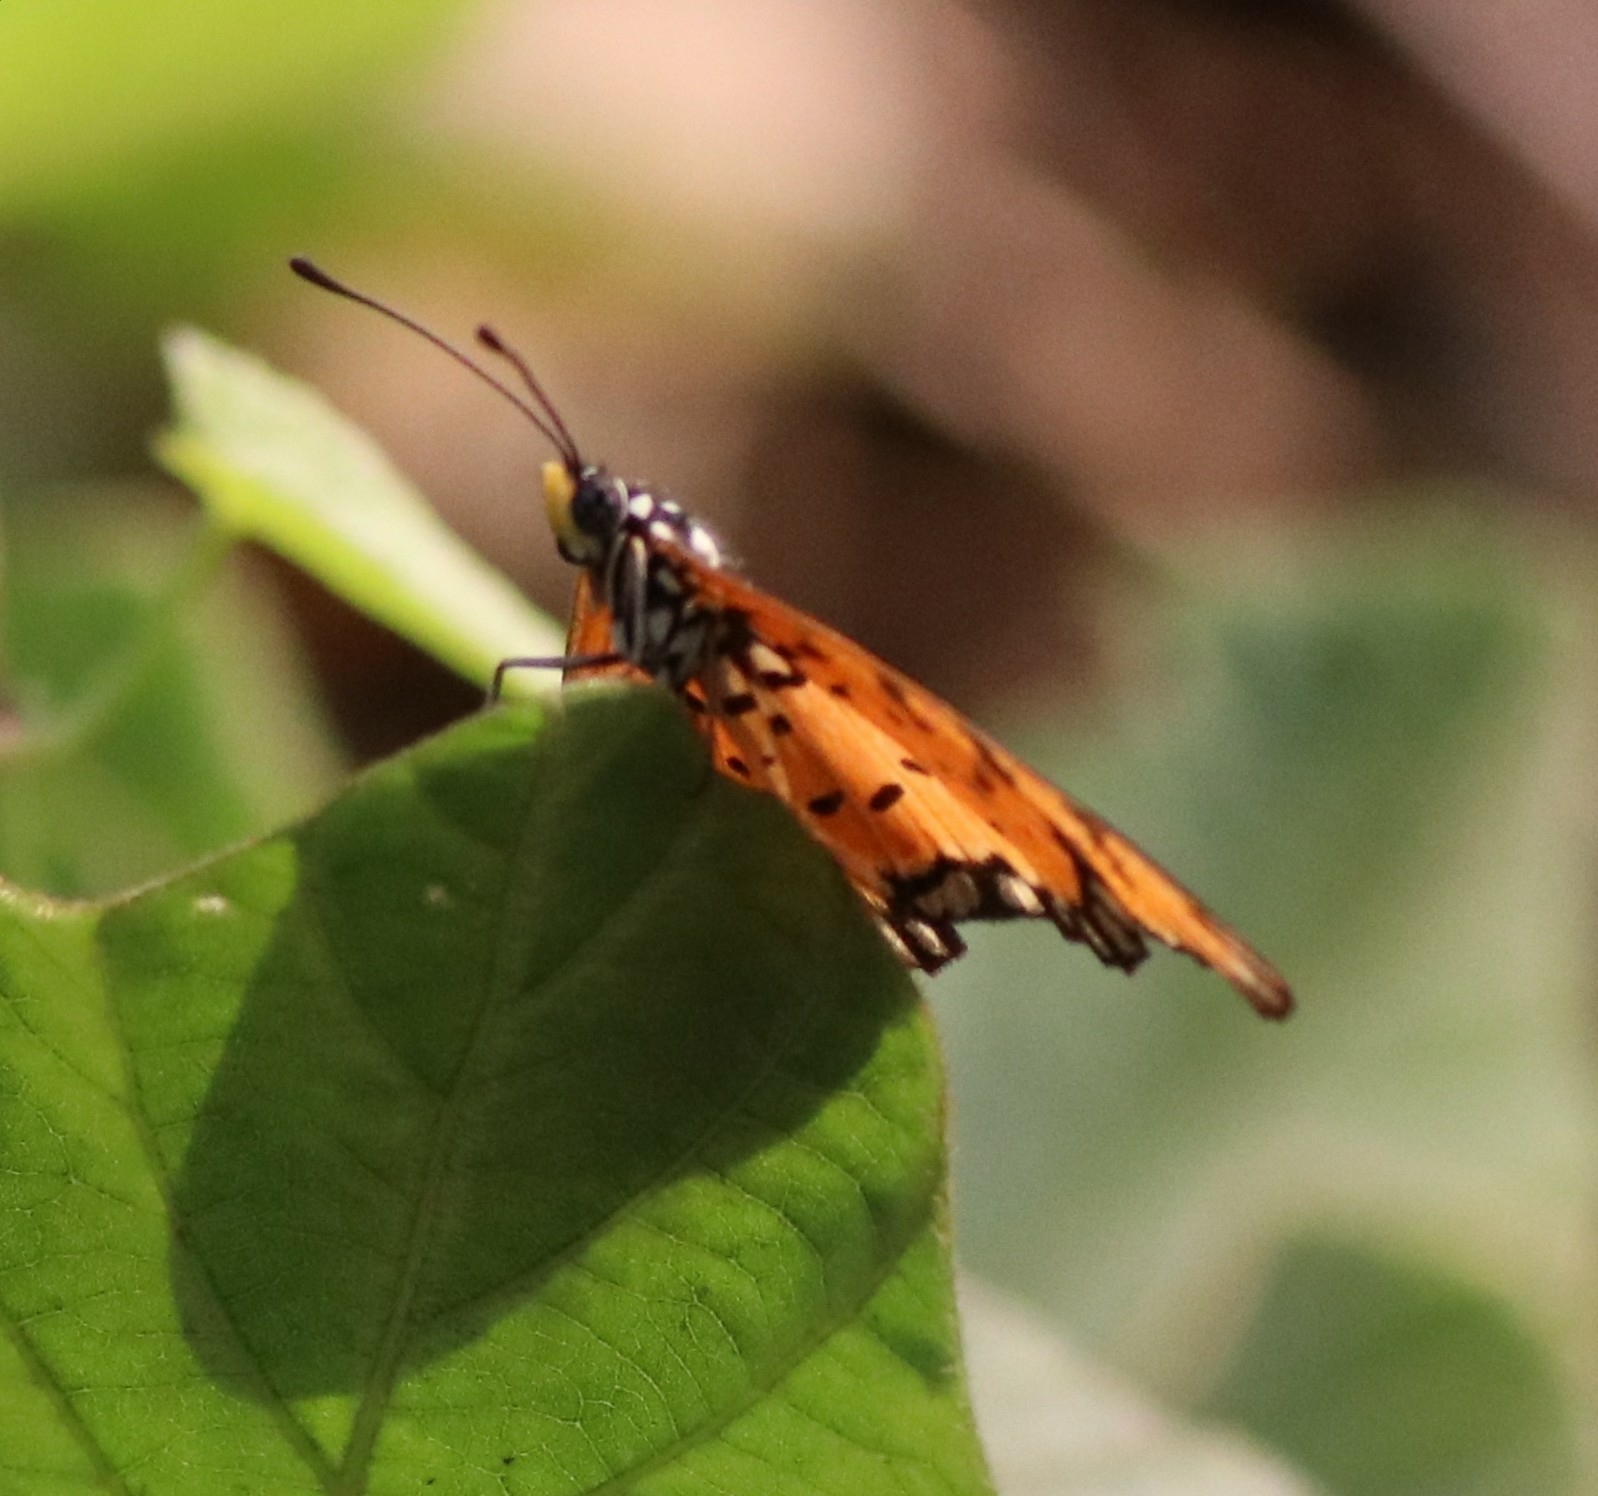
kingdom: Animalia
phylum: Arthropoda
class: Insecta
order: Lepidoptera
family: Nymphalidae
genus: Acraea
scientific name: Acraea terpsicore
